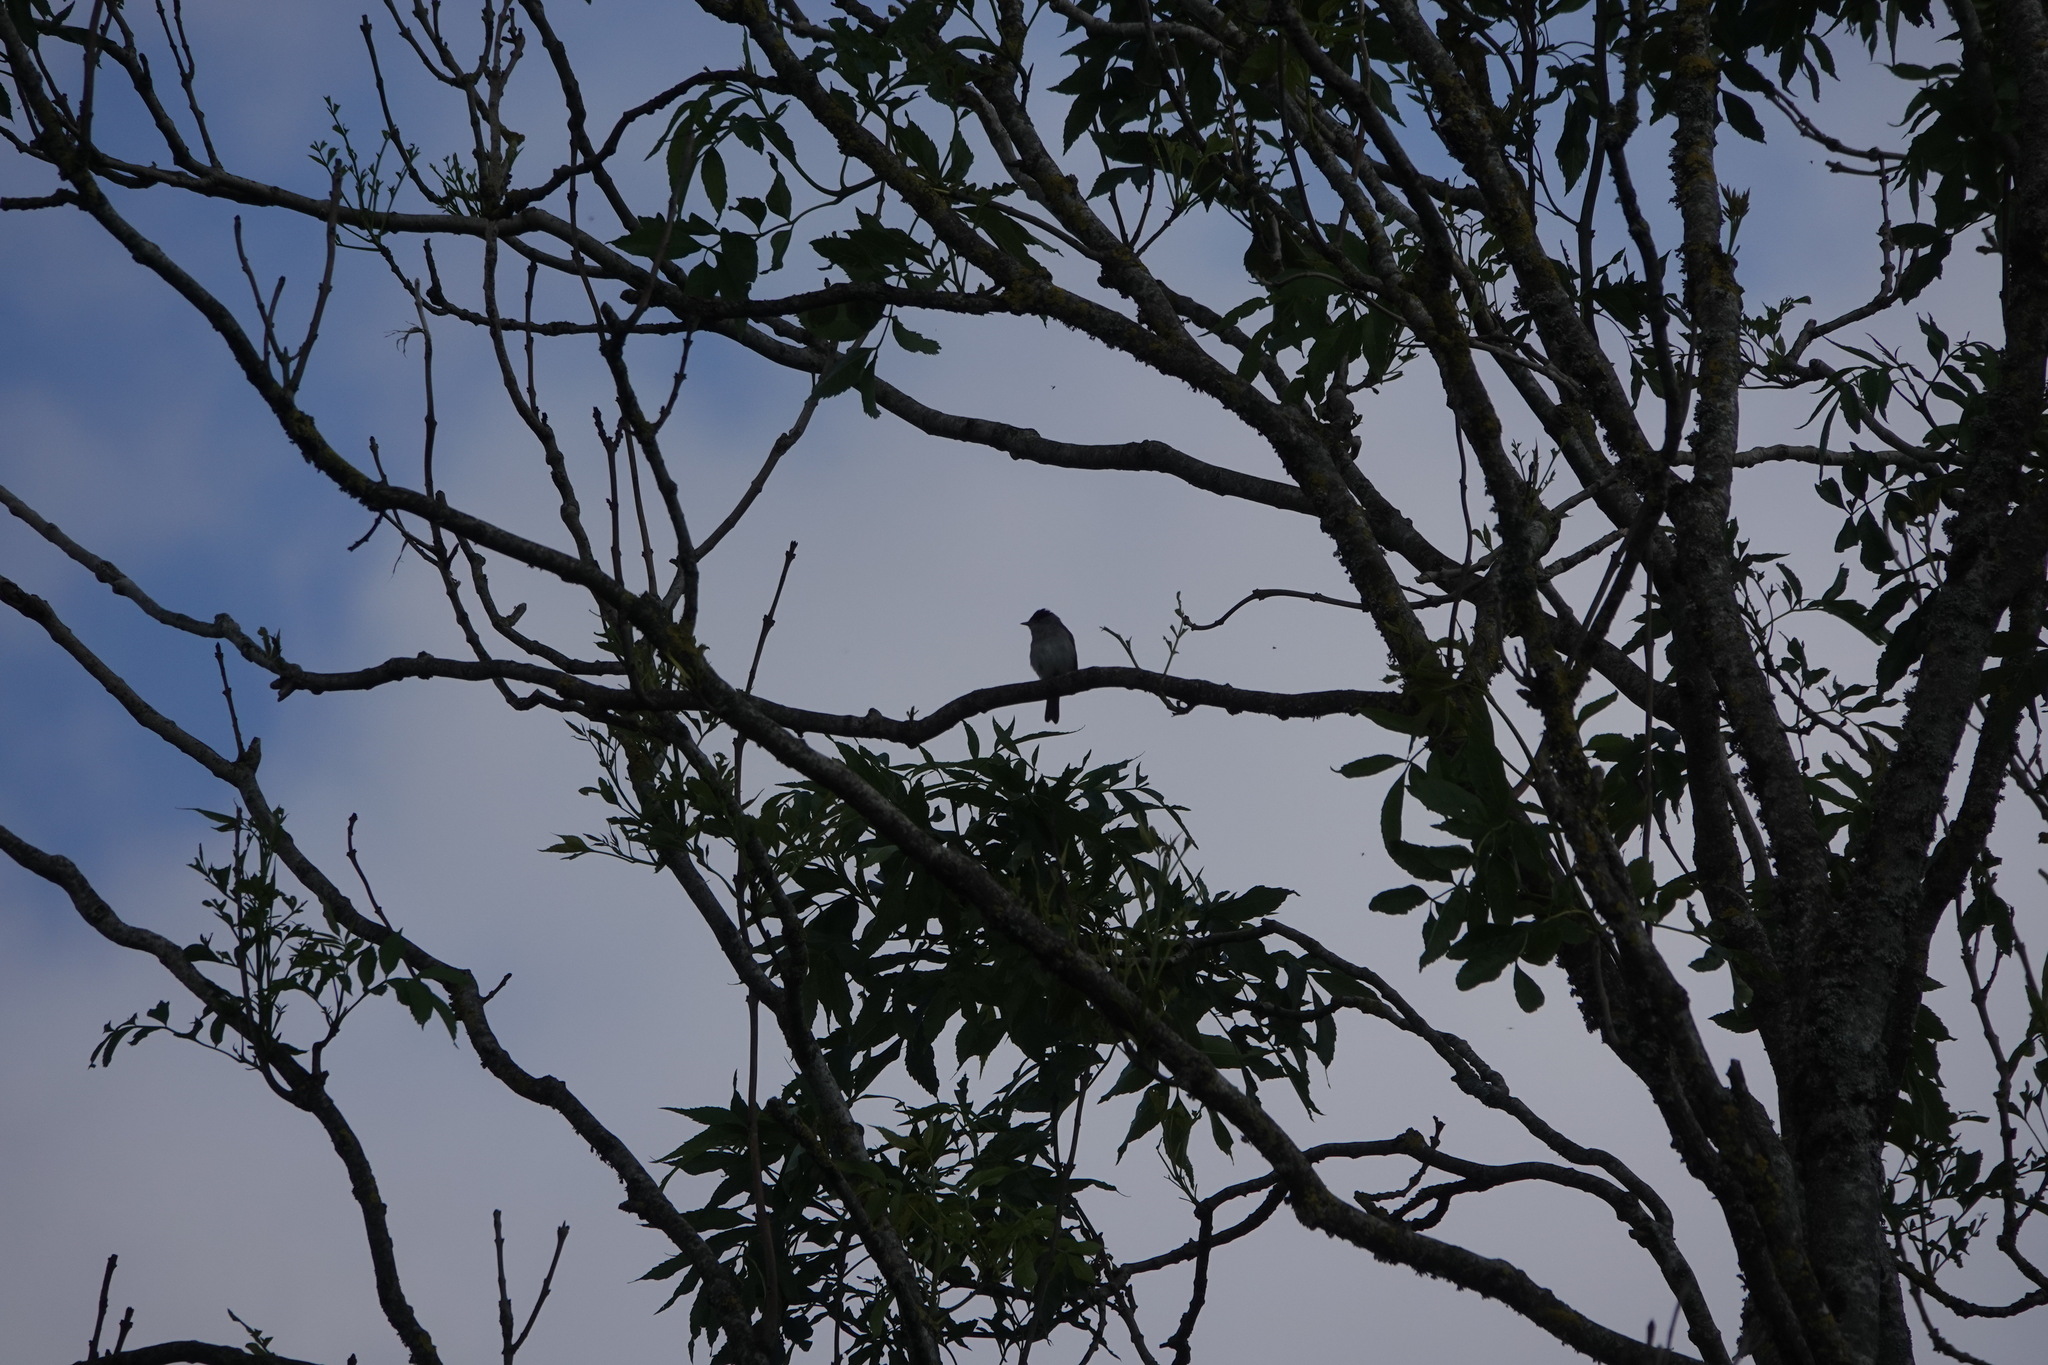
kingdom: Animalia
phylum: Chordata
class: Aves
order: Passeriformes
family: Sylviidae
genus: Sylvia
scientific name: Sylvia atricapilla
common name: Eurasian blackcap
